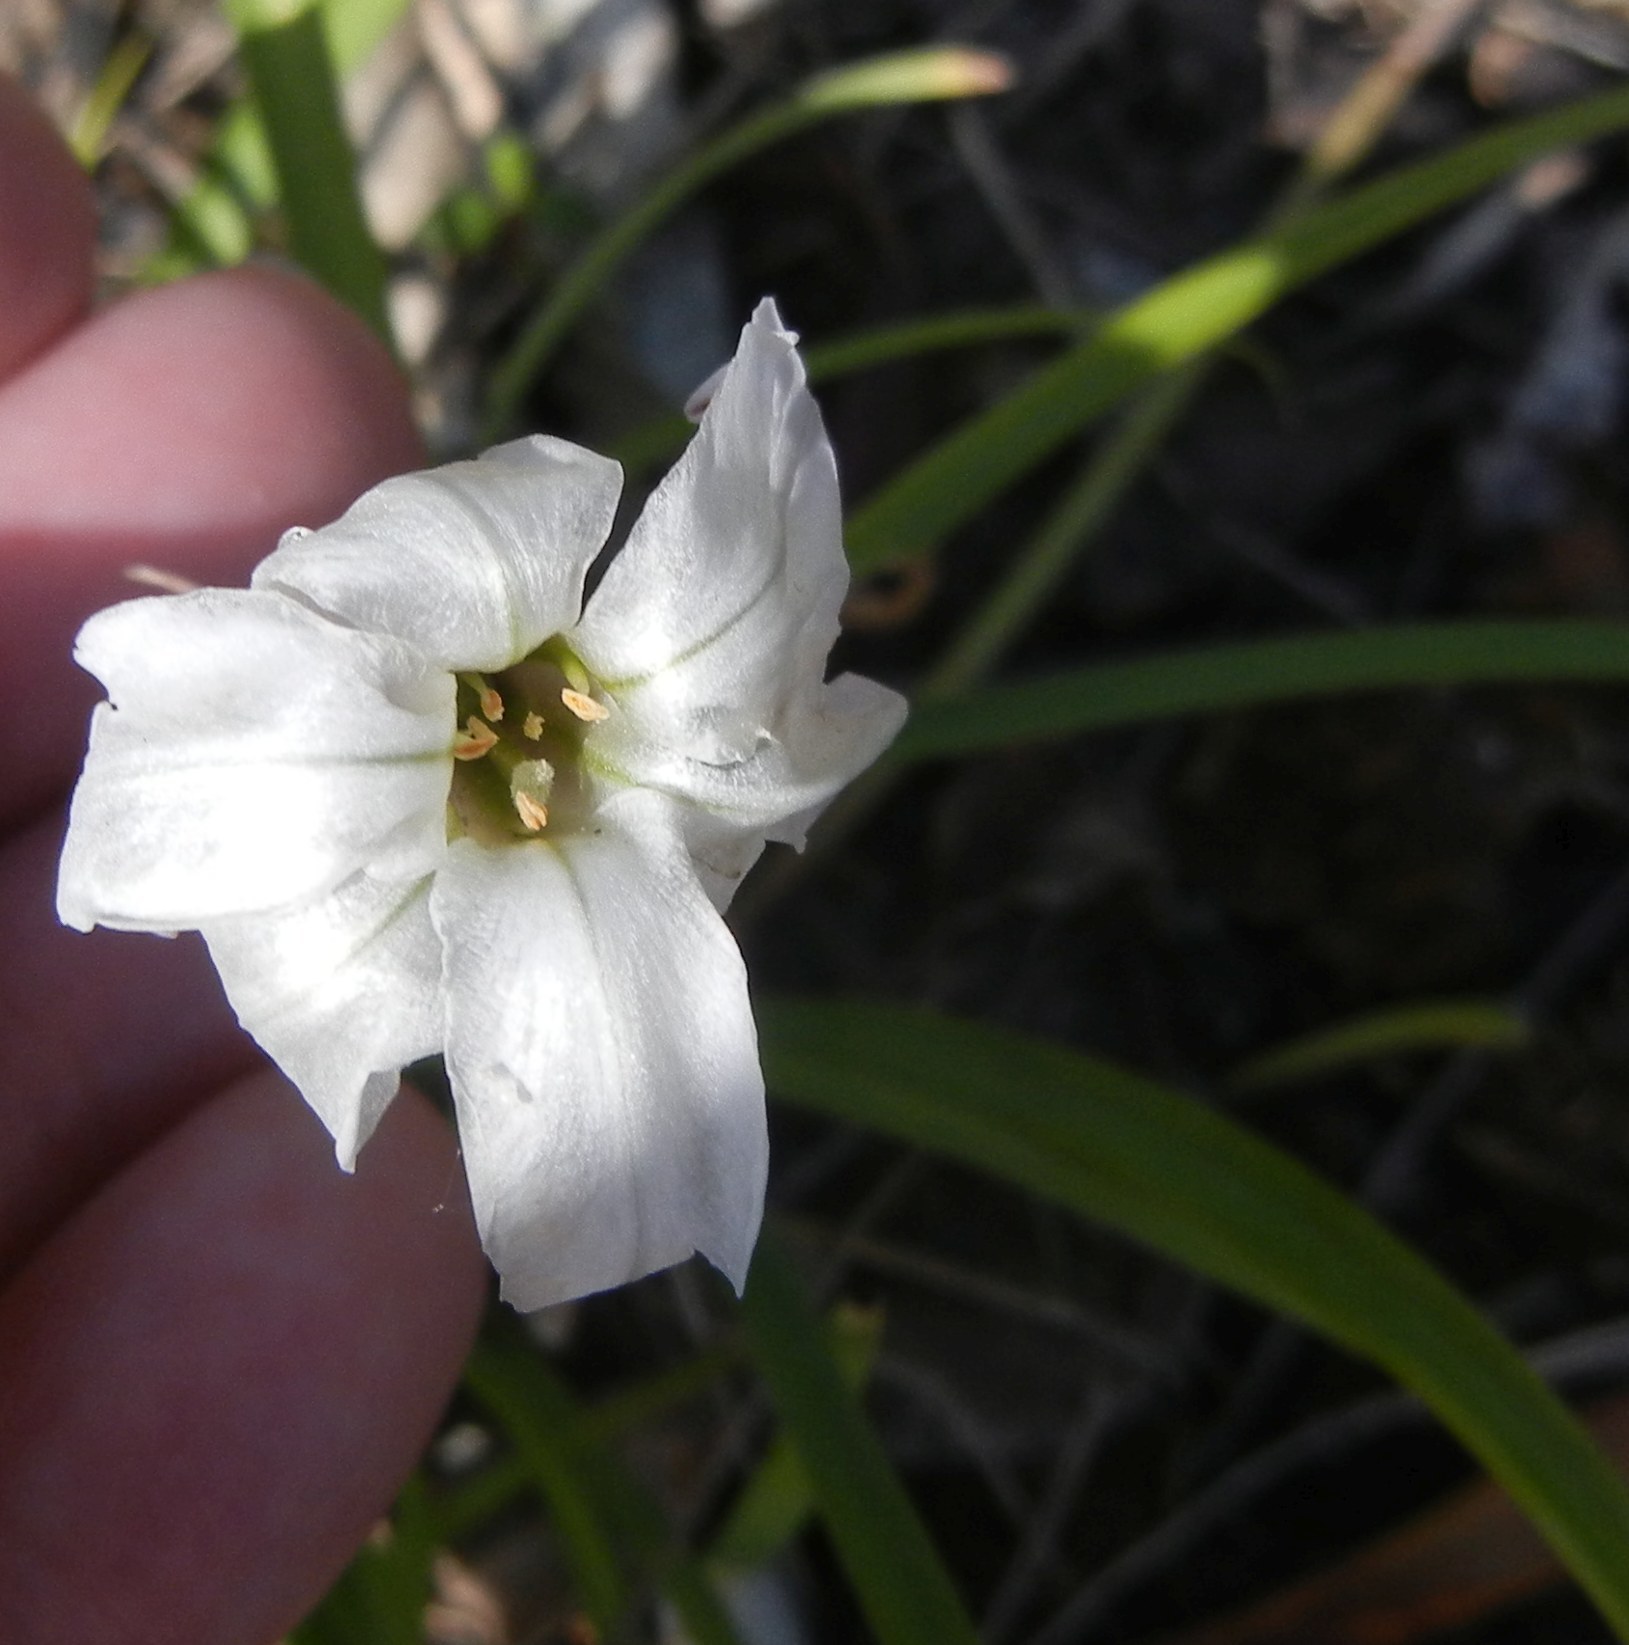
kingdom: Plantae
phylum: Tracheophyta
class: Liliopsida
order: Asparagales
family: Amaryllidaceae
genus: Ipheion
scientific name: Ipheion uniflorum
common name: Spring starflower
